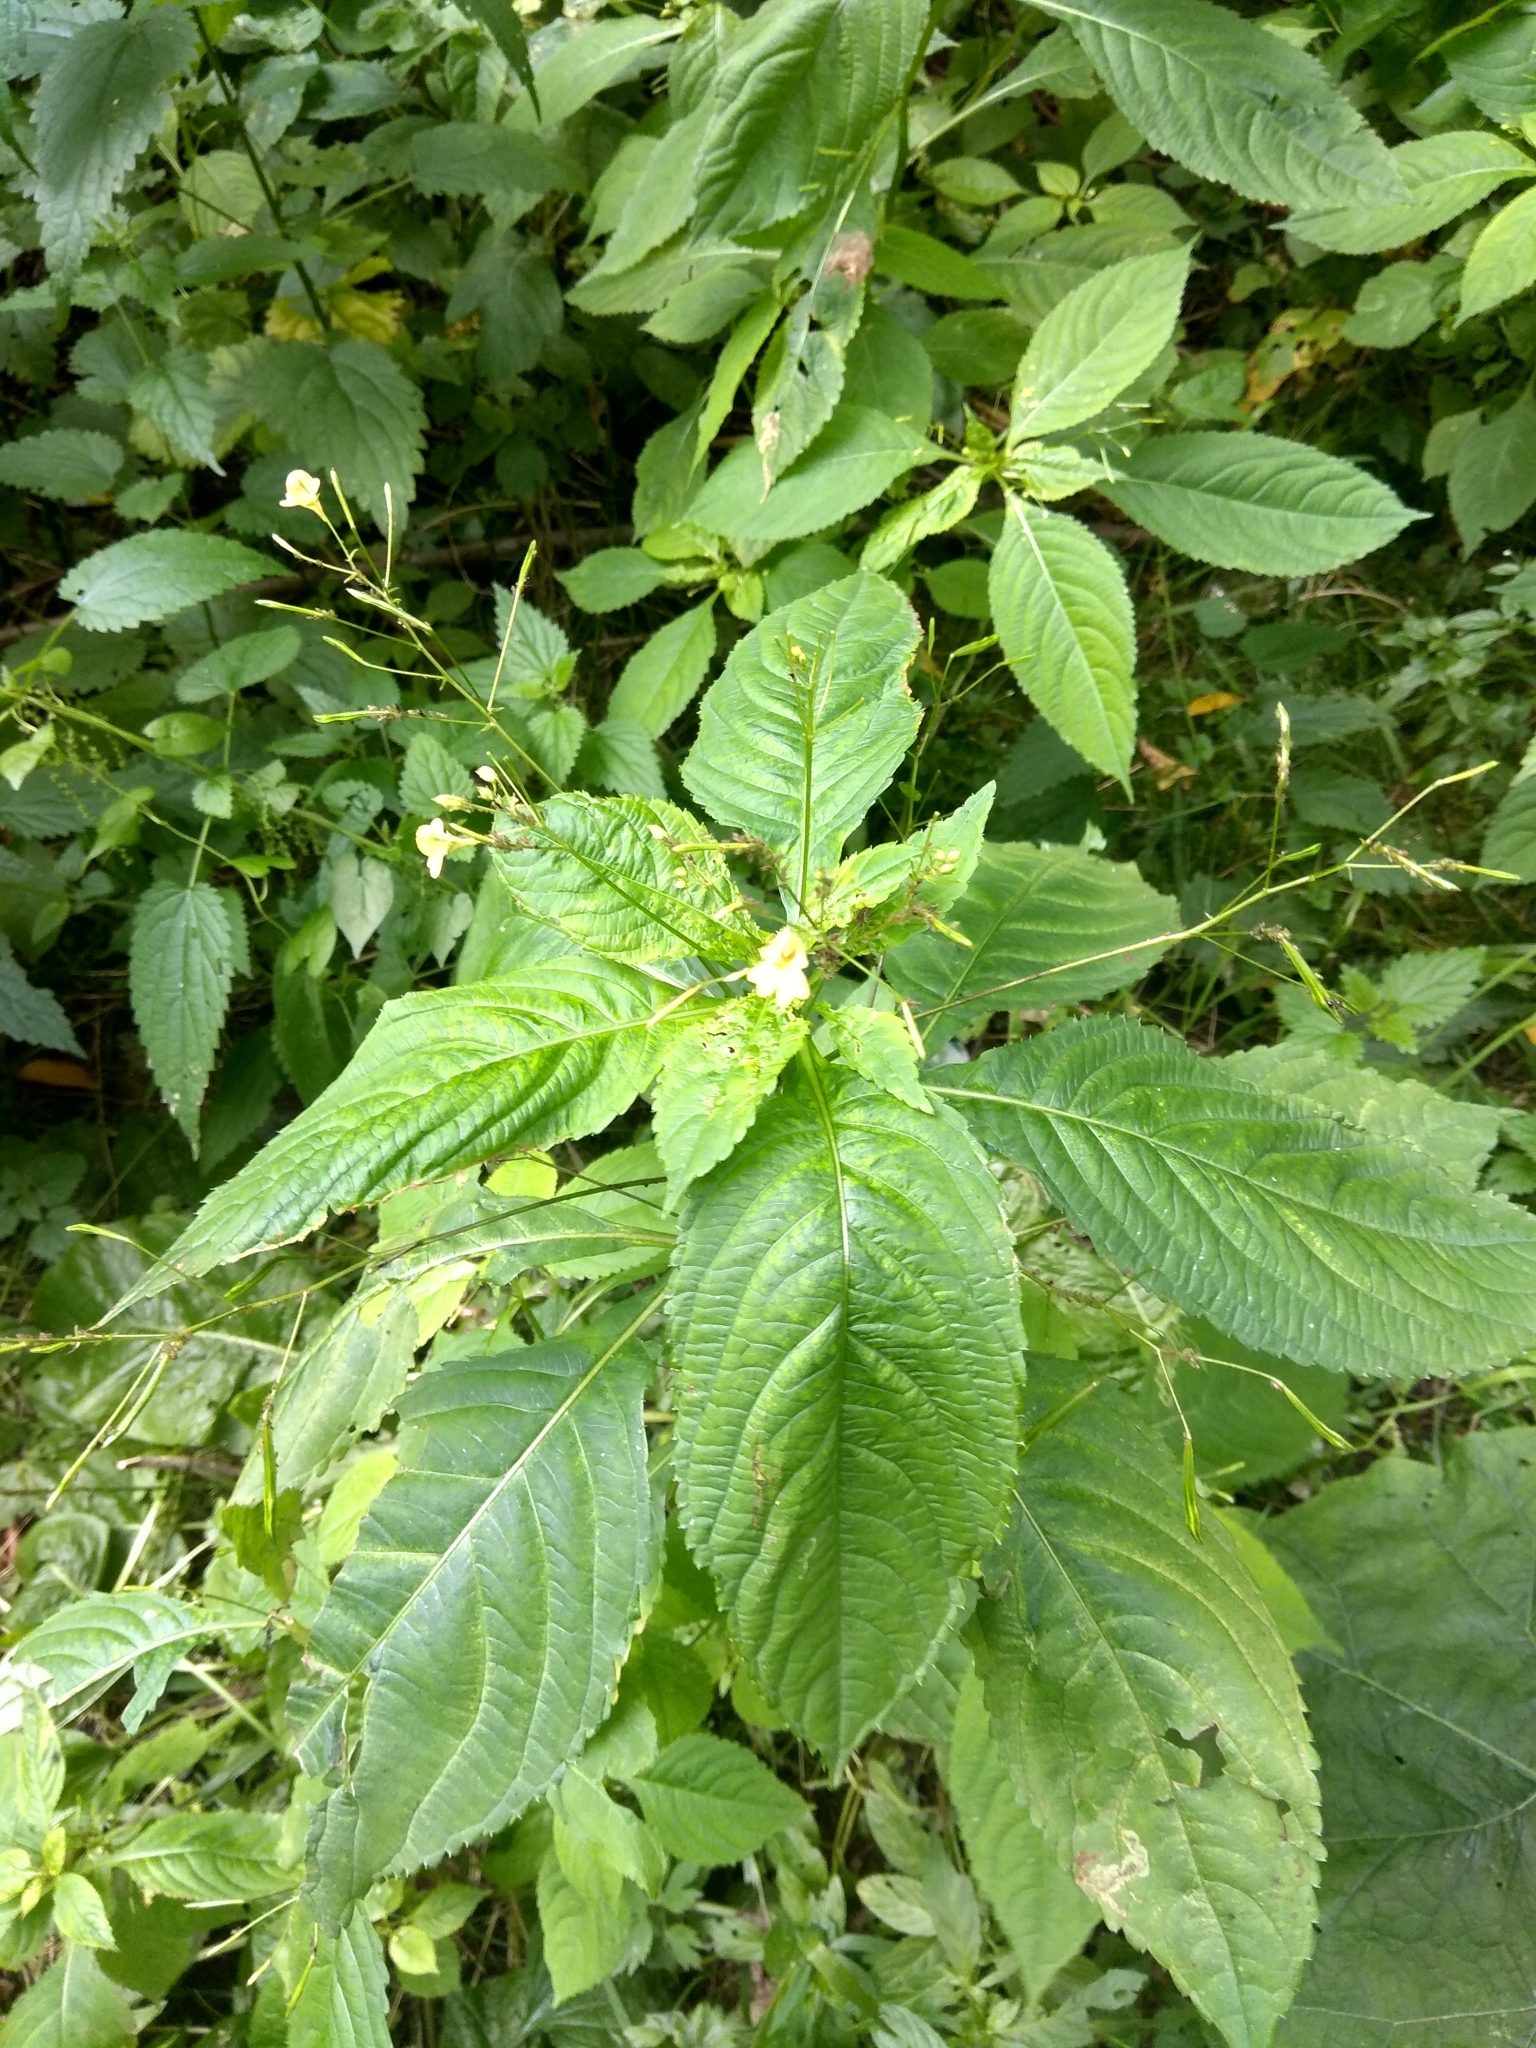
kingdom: Plantae
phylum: Tracheophyta
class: Magnoliopsida
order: Ericales
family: Balsaminaceae
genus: Impatiens
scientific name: Impatiens parviflora
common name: Small balsam
